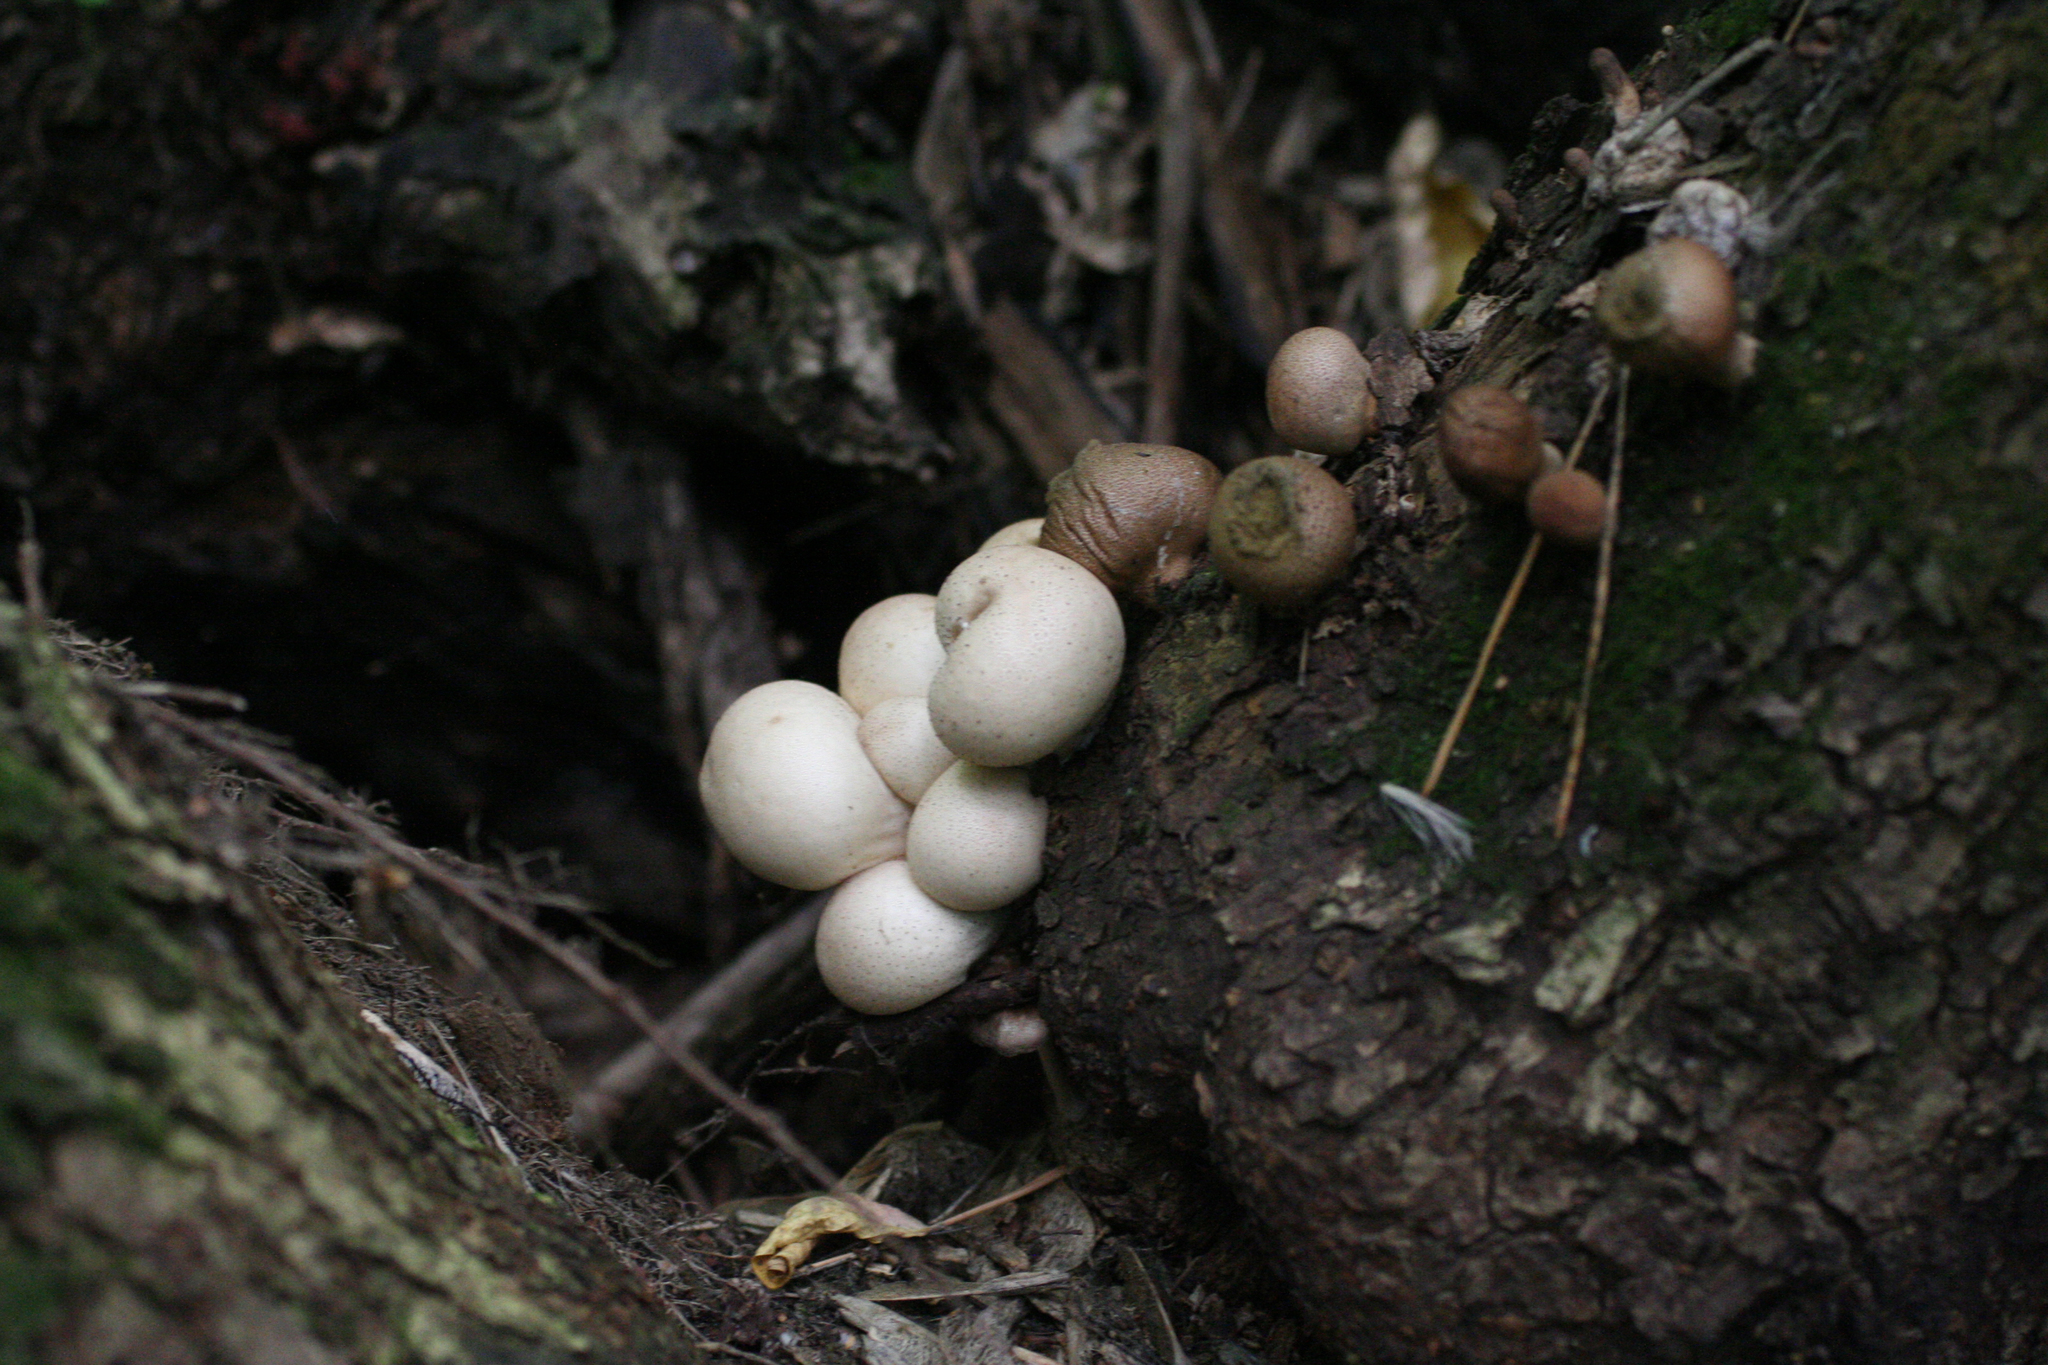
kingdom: Fungi
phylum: Basidiomycota
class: Agaricomycetes
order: Agaricales
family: Lycoperdaceae
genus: Apioperdon
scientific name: Apioperdon pyriforme
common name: Pear-shaped puffball
